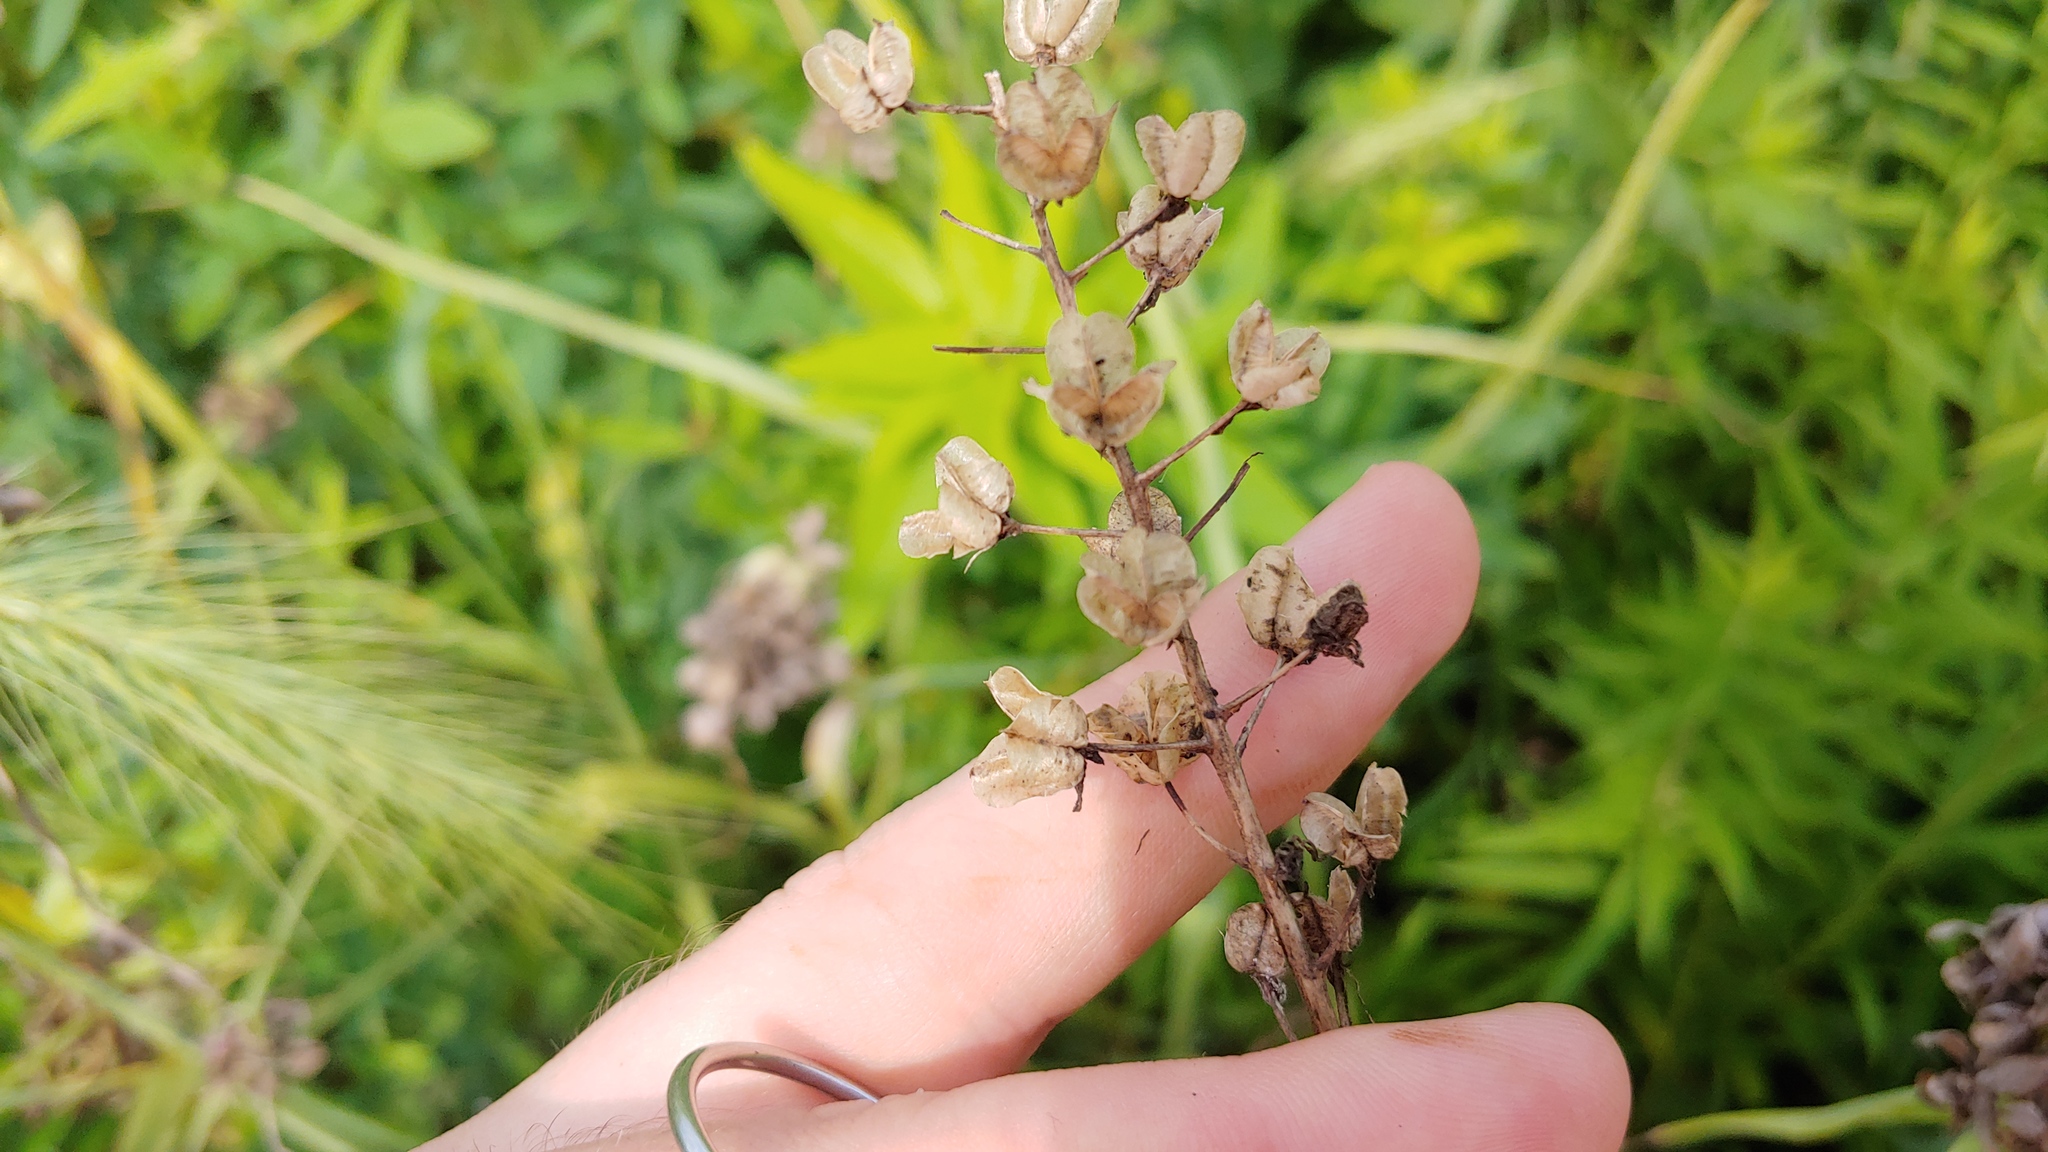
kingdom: Plantae
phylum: Tracheophyta
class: Liliopsida
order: Asparagales
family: Asparagaceae
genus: Camassia
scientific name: Camassia scilloides
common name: Wild hyacinth
